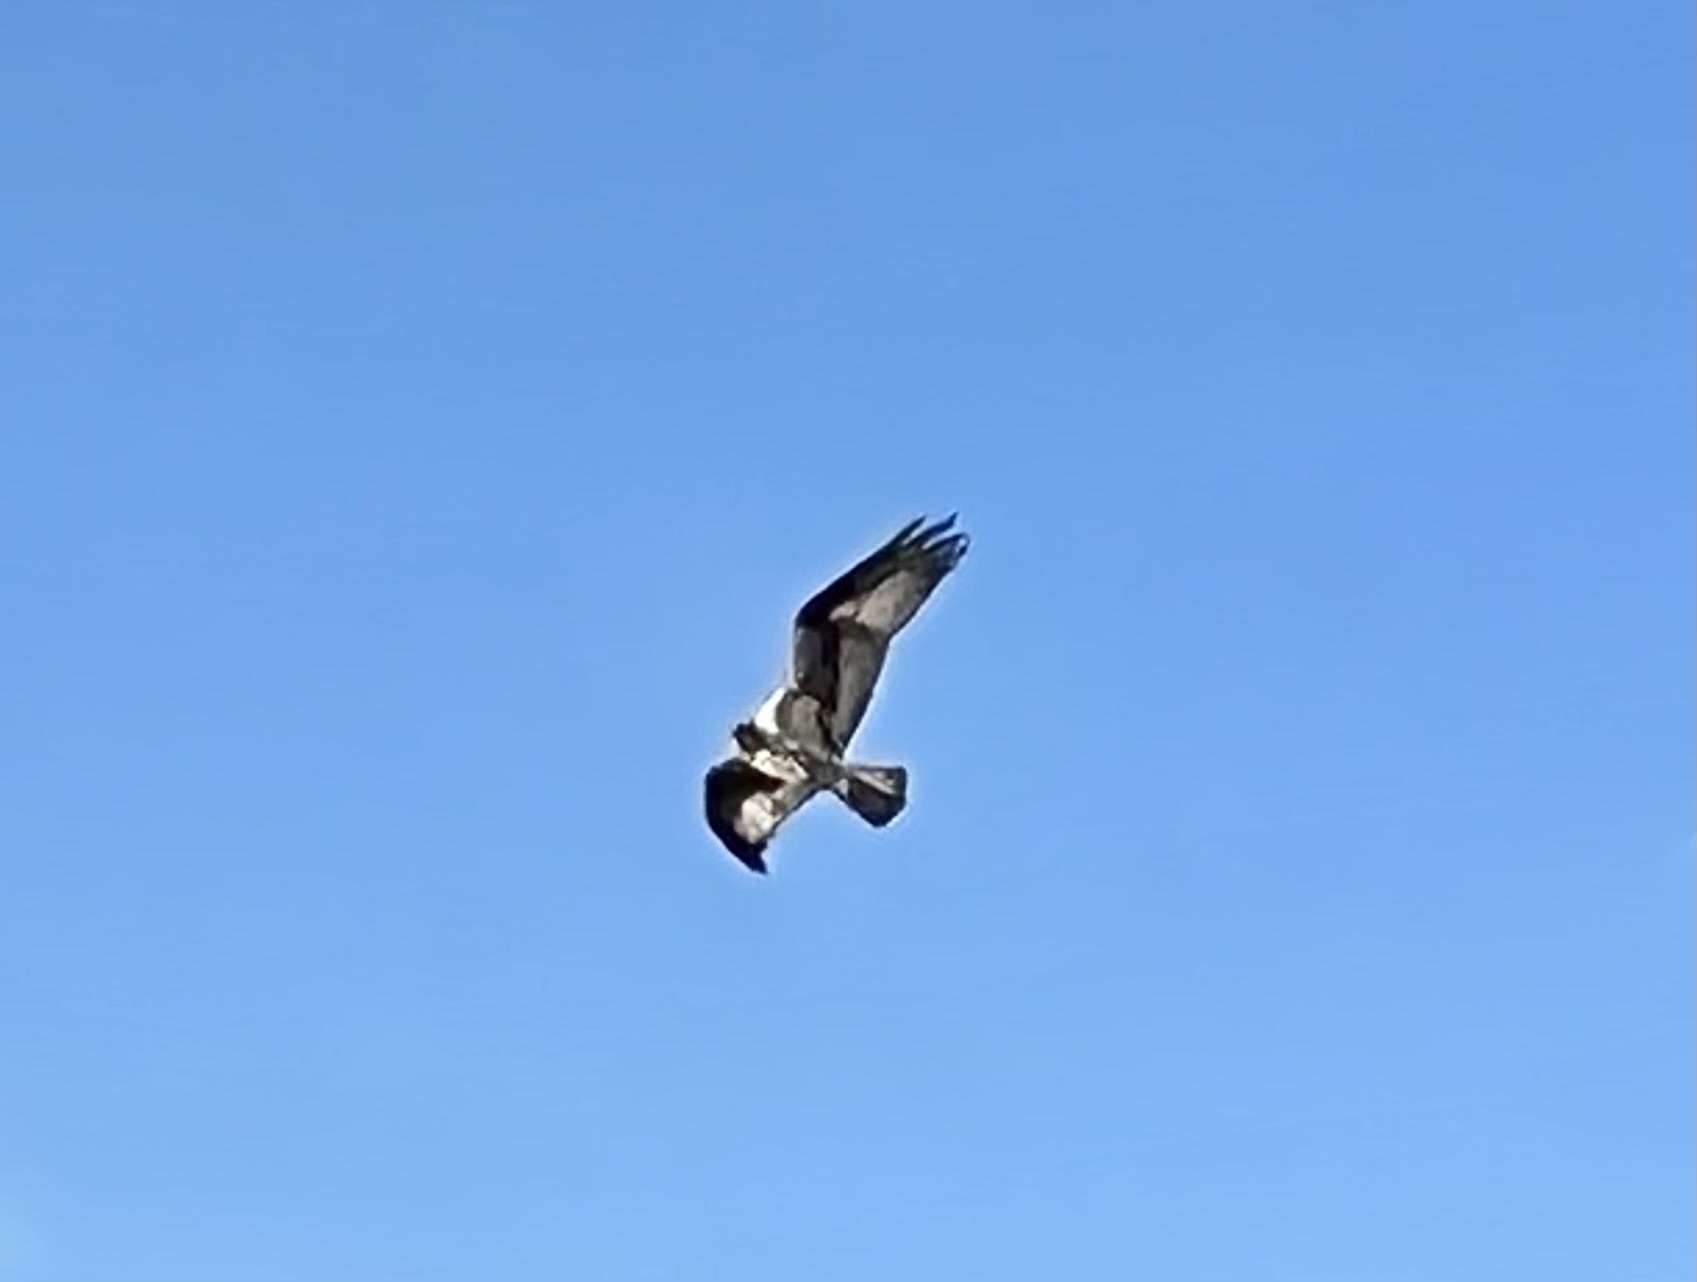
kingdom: Animalia
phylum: Chordata
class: Aves
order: Accipitriformes
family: Pandionidae
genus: Pandion
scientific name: Pandion haliaetus
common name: Osprey
